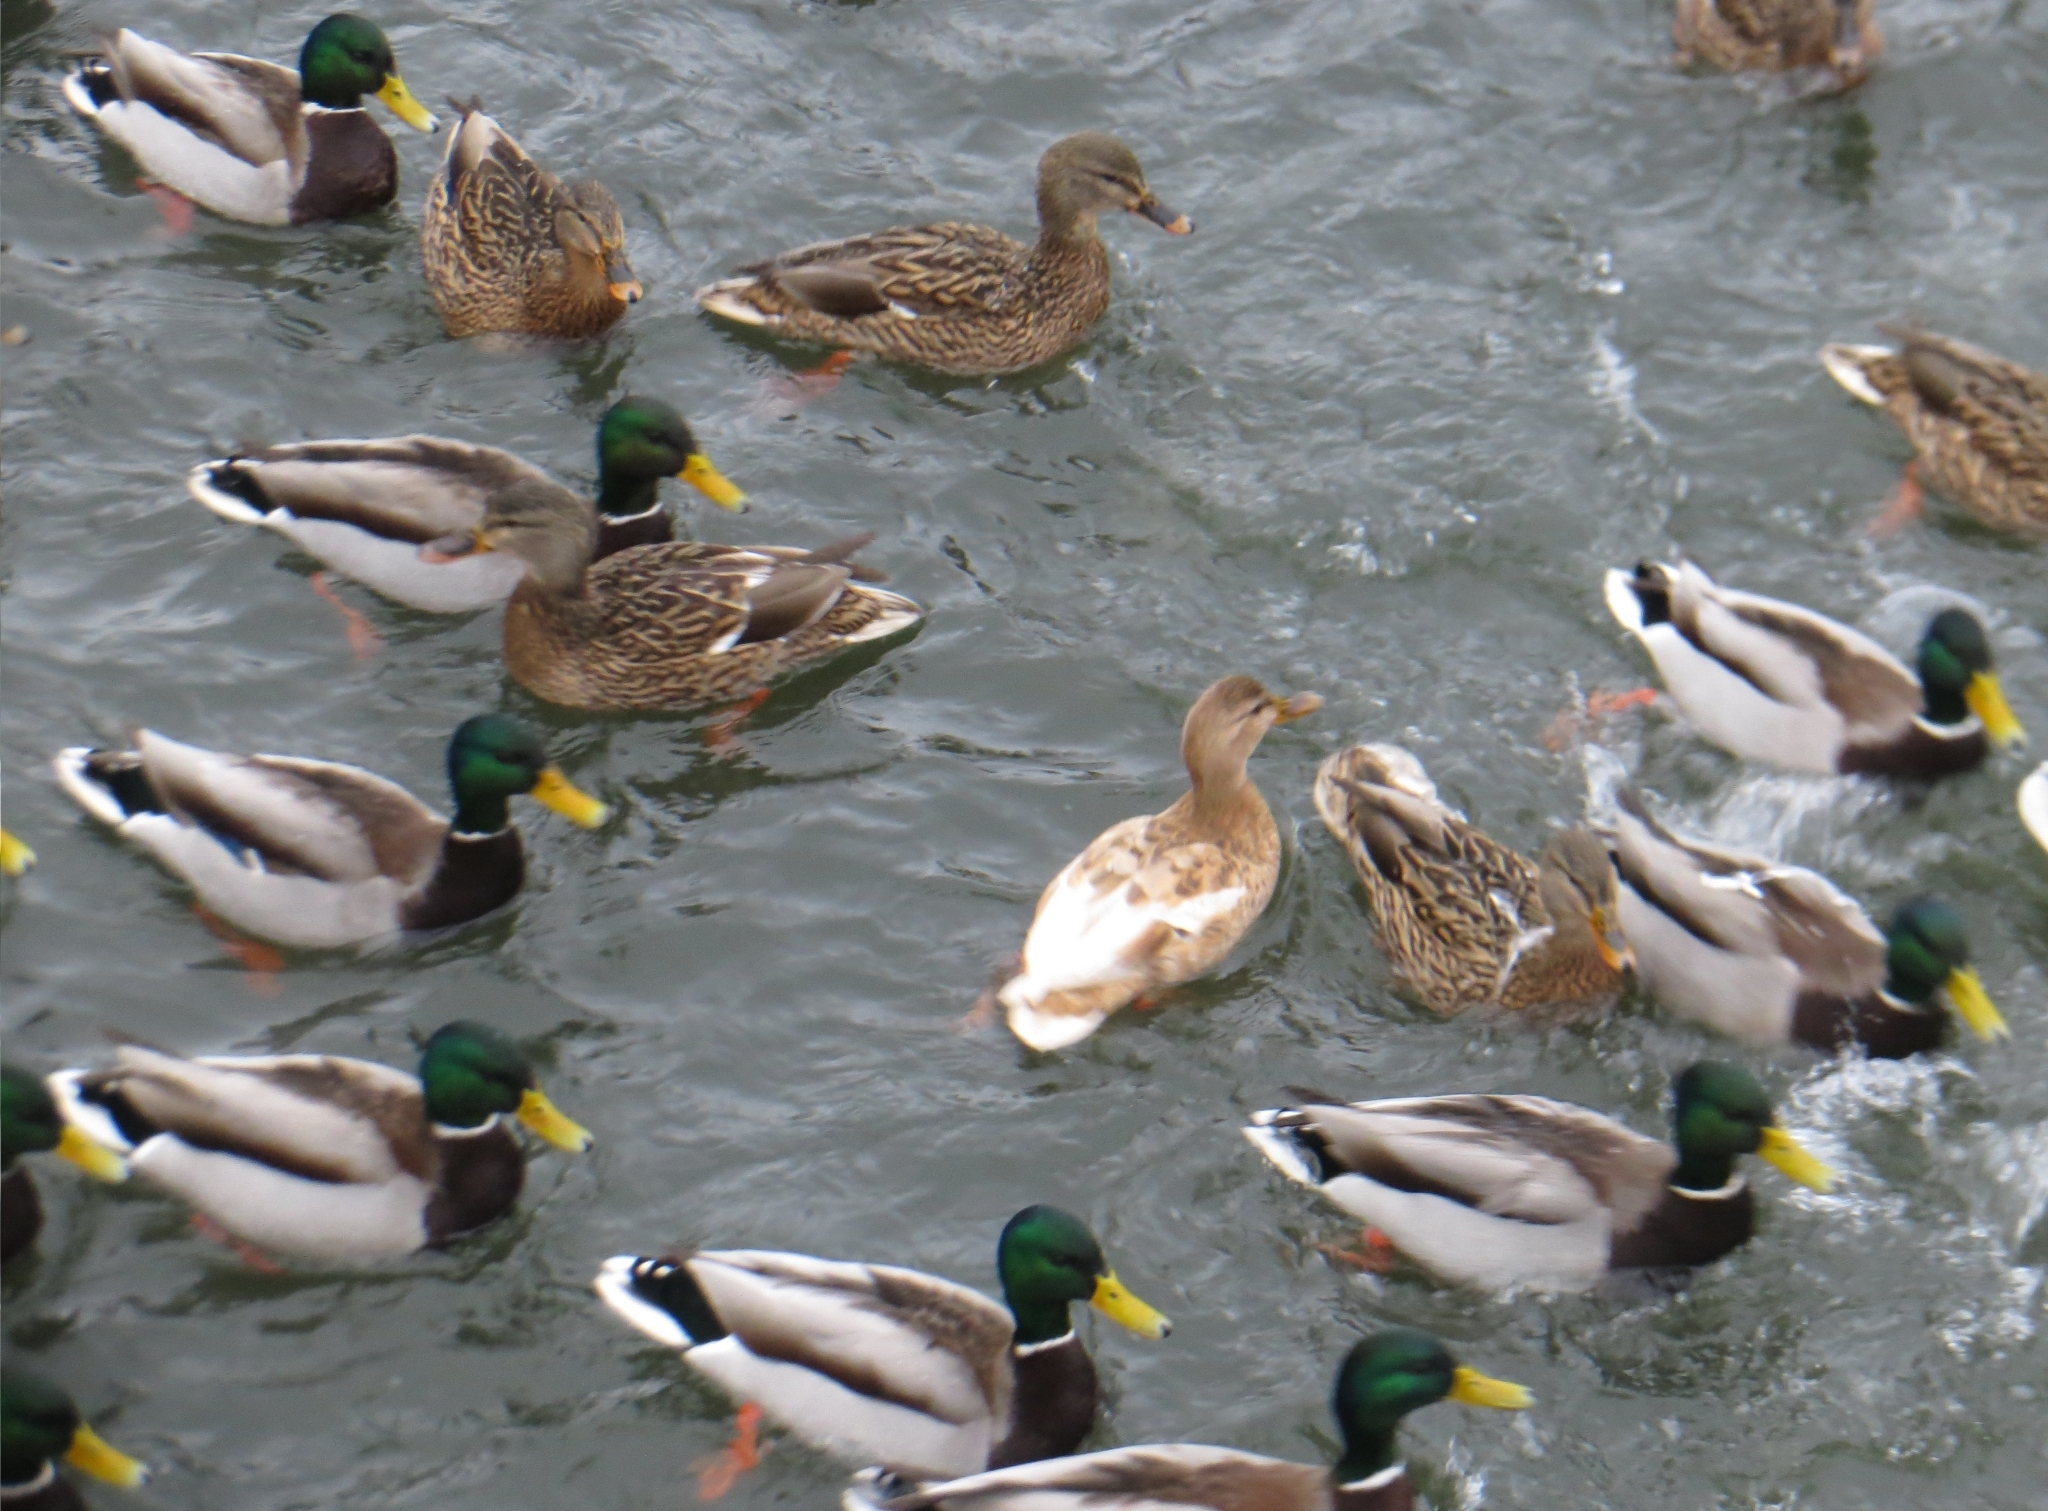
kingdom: Animalia
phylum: Chordata
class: Aves
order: Anseriformes
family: Anatidae
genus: Anas
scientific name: Anas platyrhynchos
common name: Mallard
